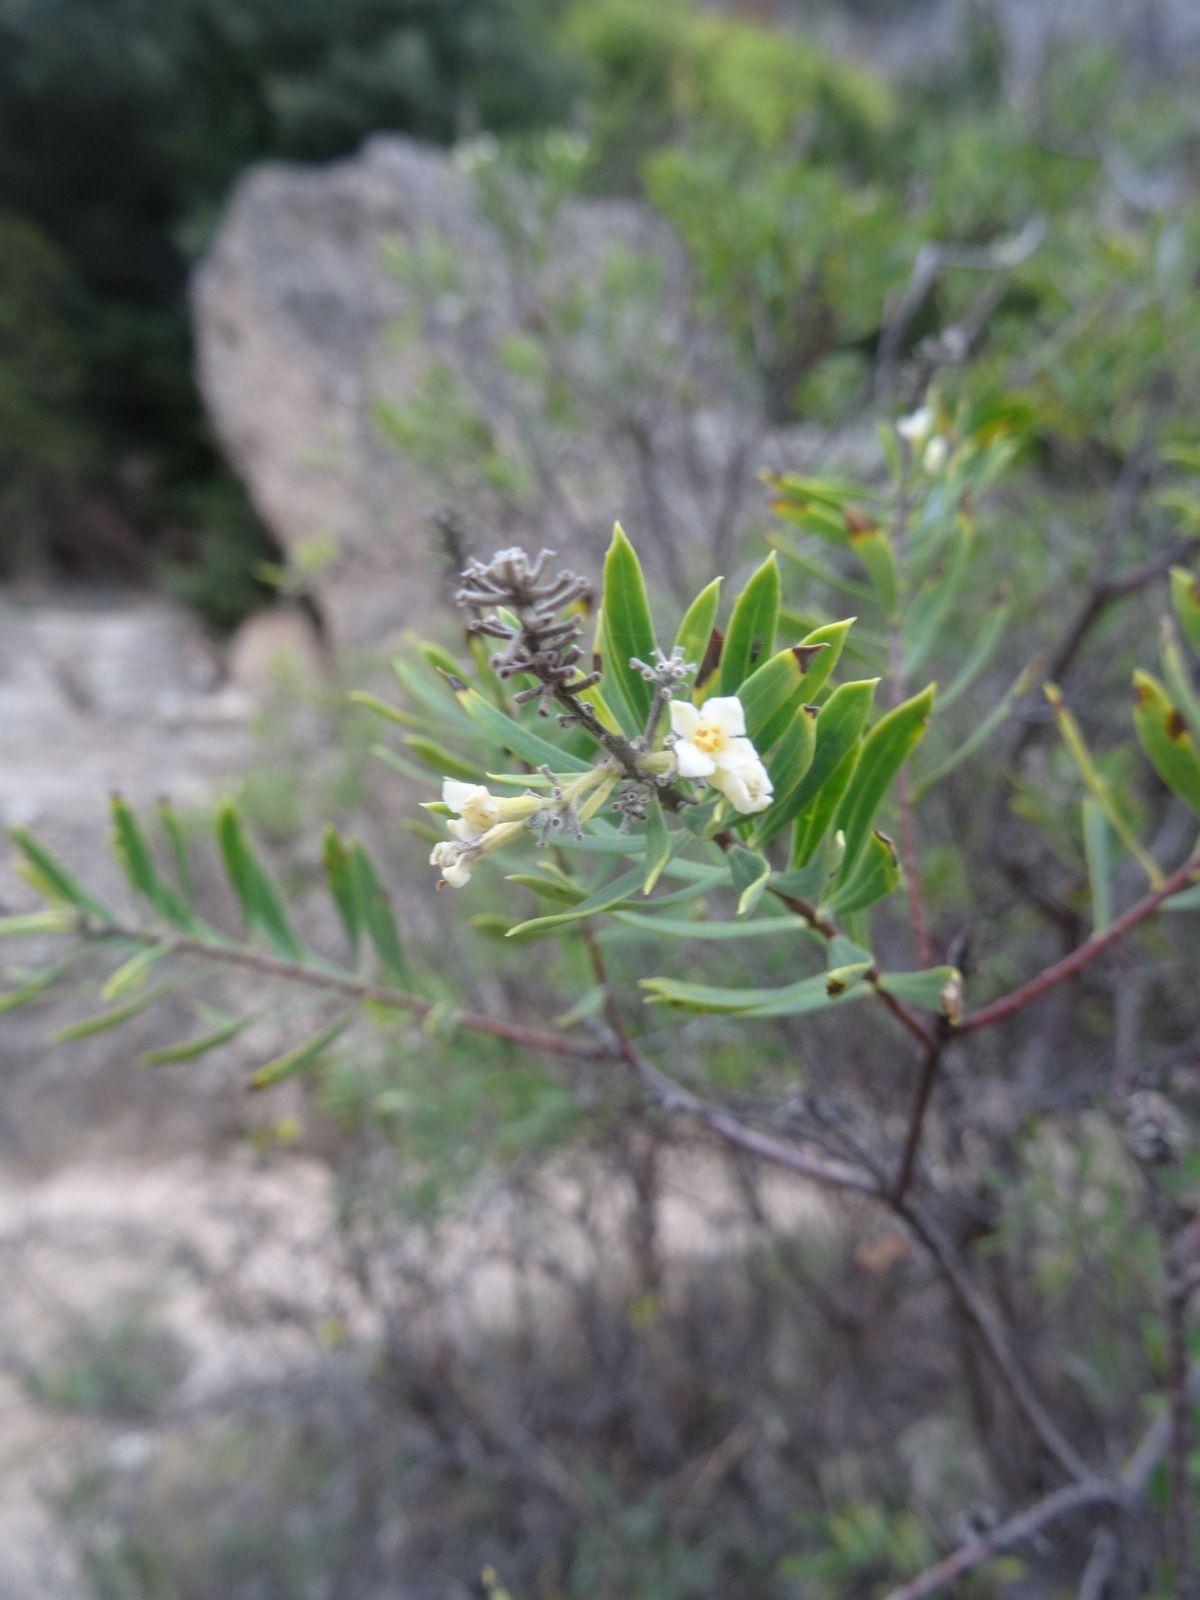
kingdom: Plantae
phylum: Tracheophyta
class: Magnoliopsida
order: Malvales
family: Thymelaeaceae
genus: Daphne
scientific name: Daphne gnidium
